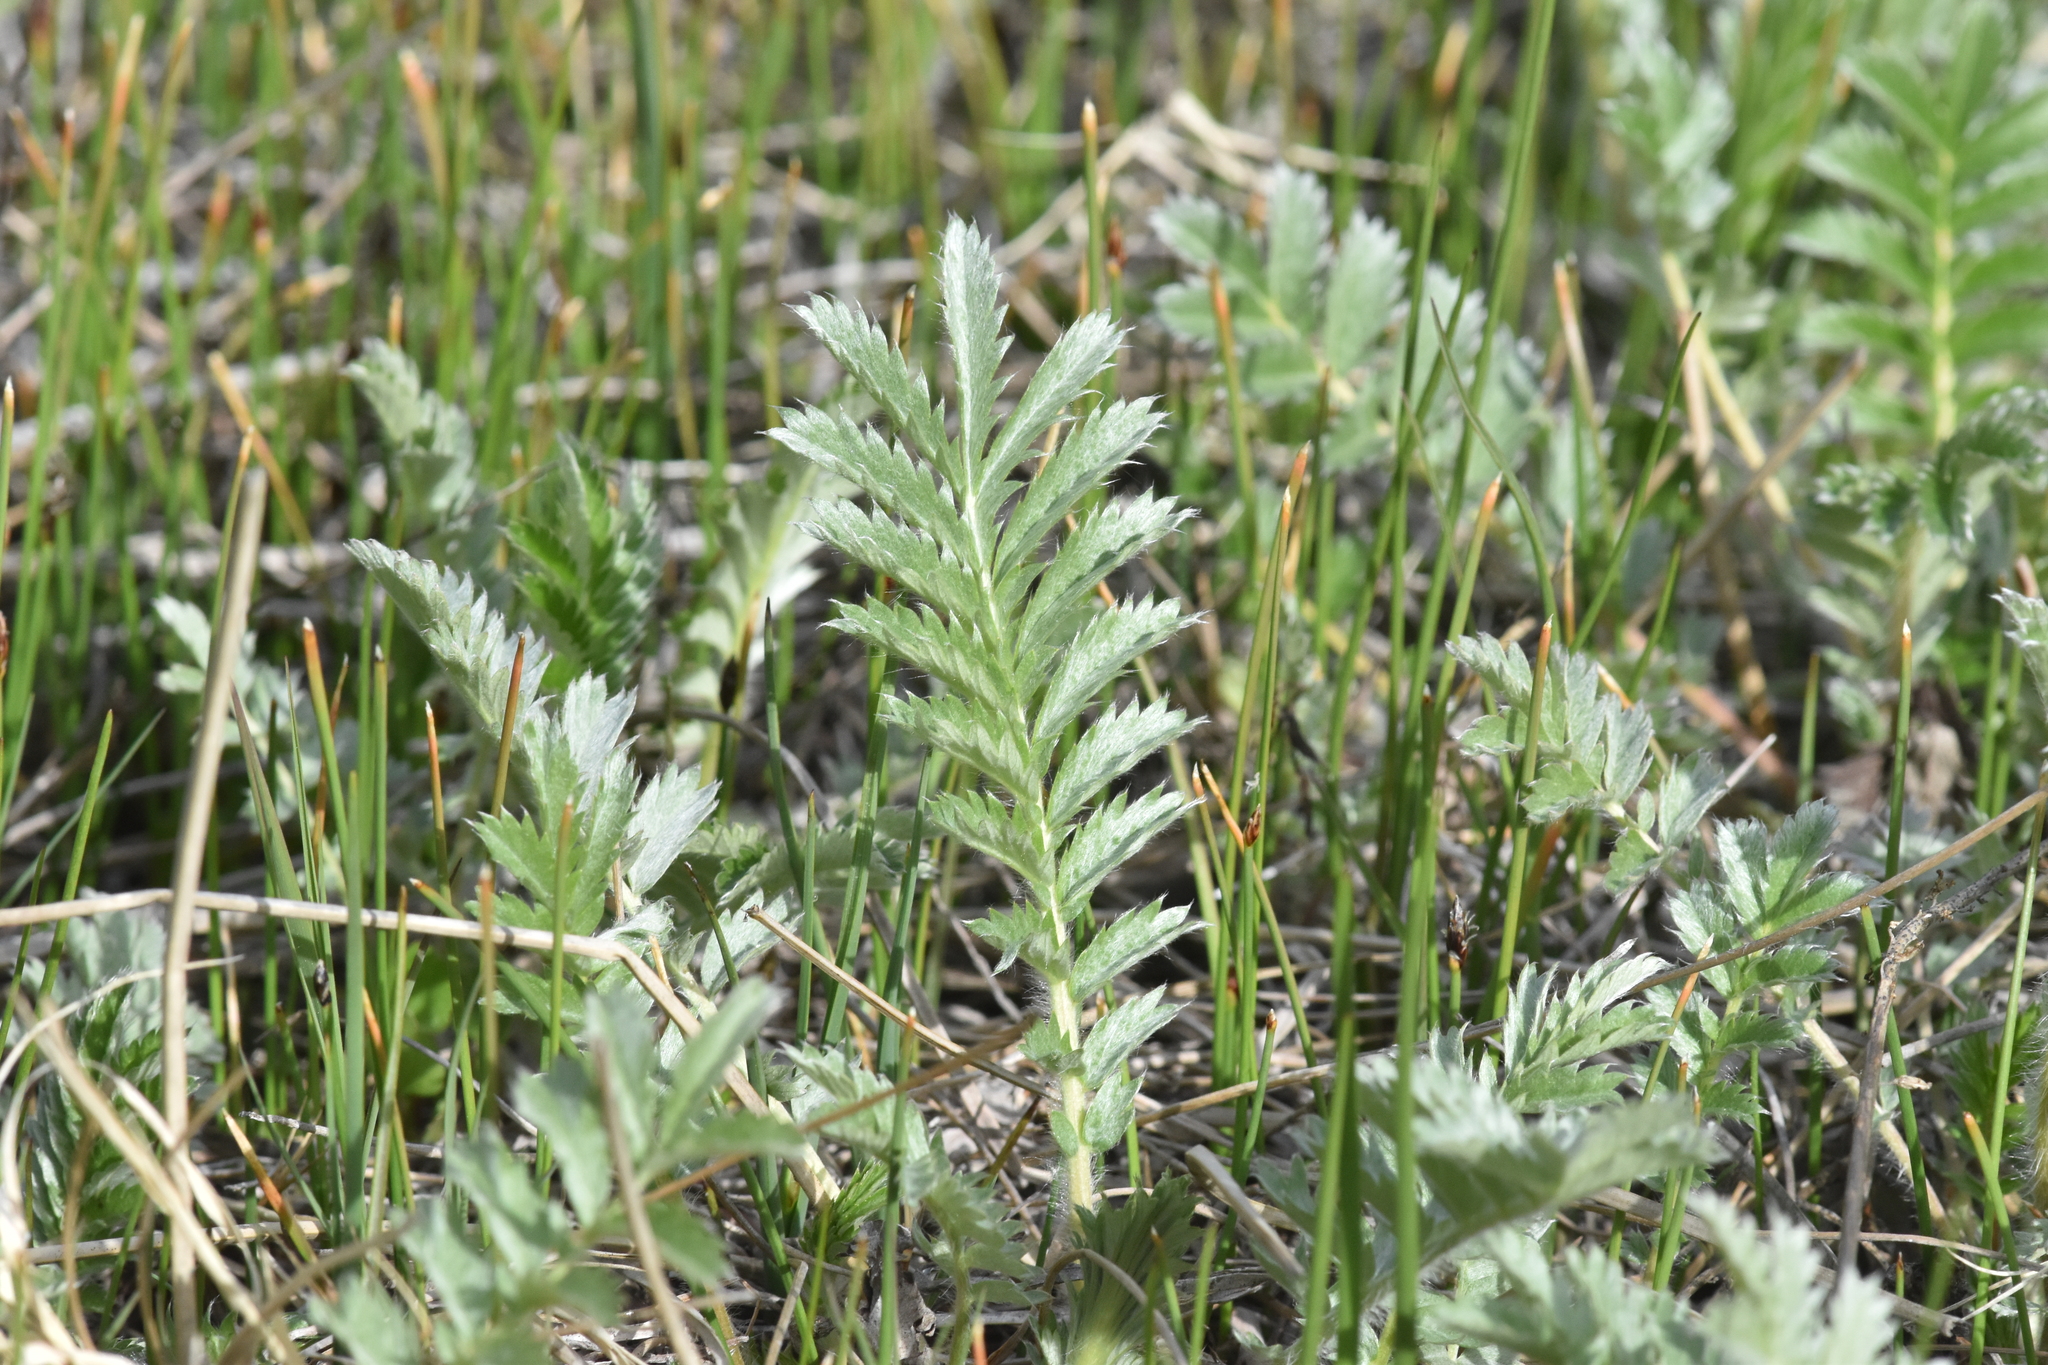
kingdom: Plantae
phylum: Tracheophyta
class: Magnoliopsida
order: Rosales
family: Rosaceae
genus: Argentina
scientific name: Argentina anserina
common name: Common silverweed
